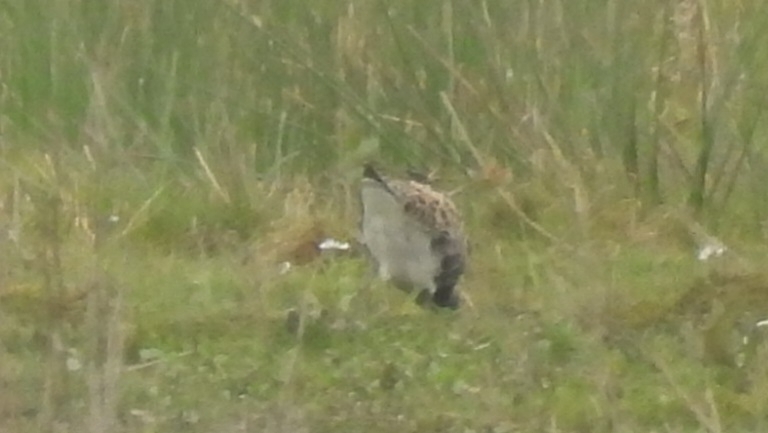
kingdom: Animalia
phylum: Chordata
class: Aves
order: Charadriiformes
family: Scolopacidae
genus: Calidris
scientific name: Calidris pugnax
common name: Ruff
